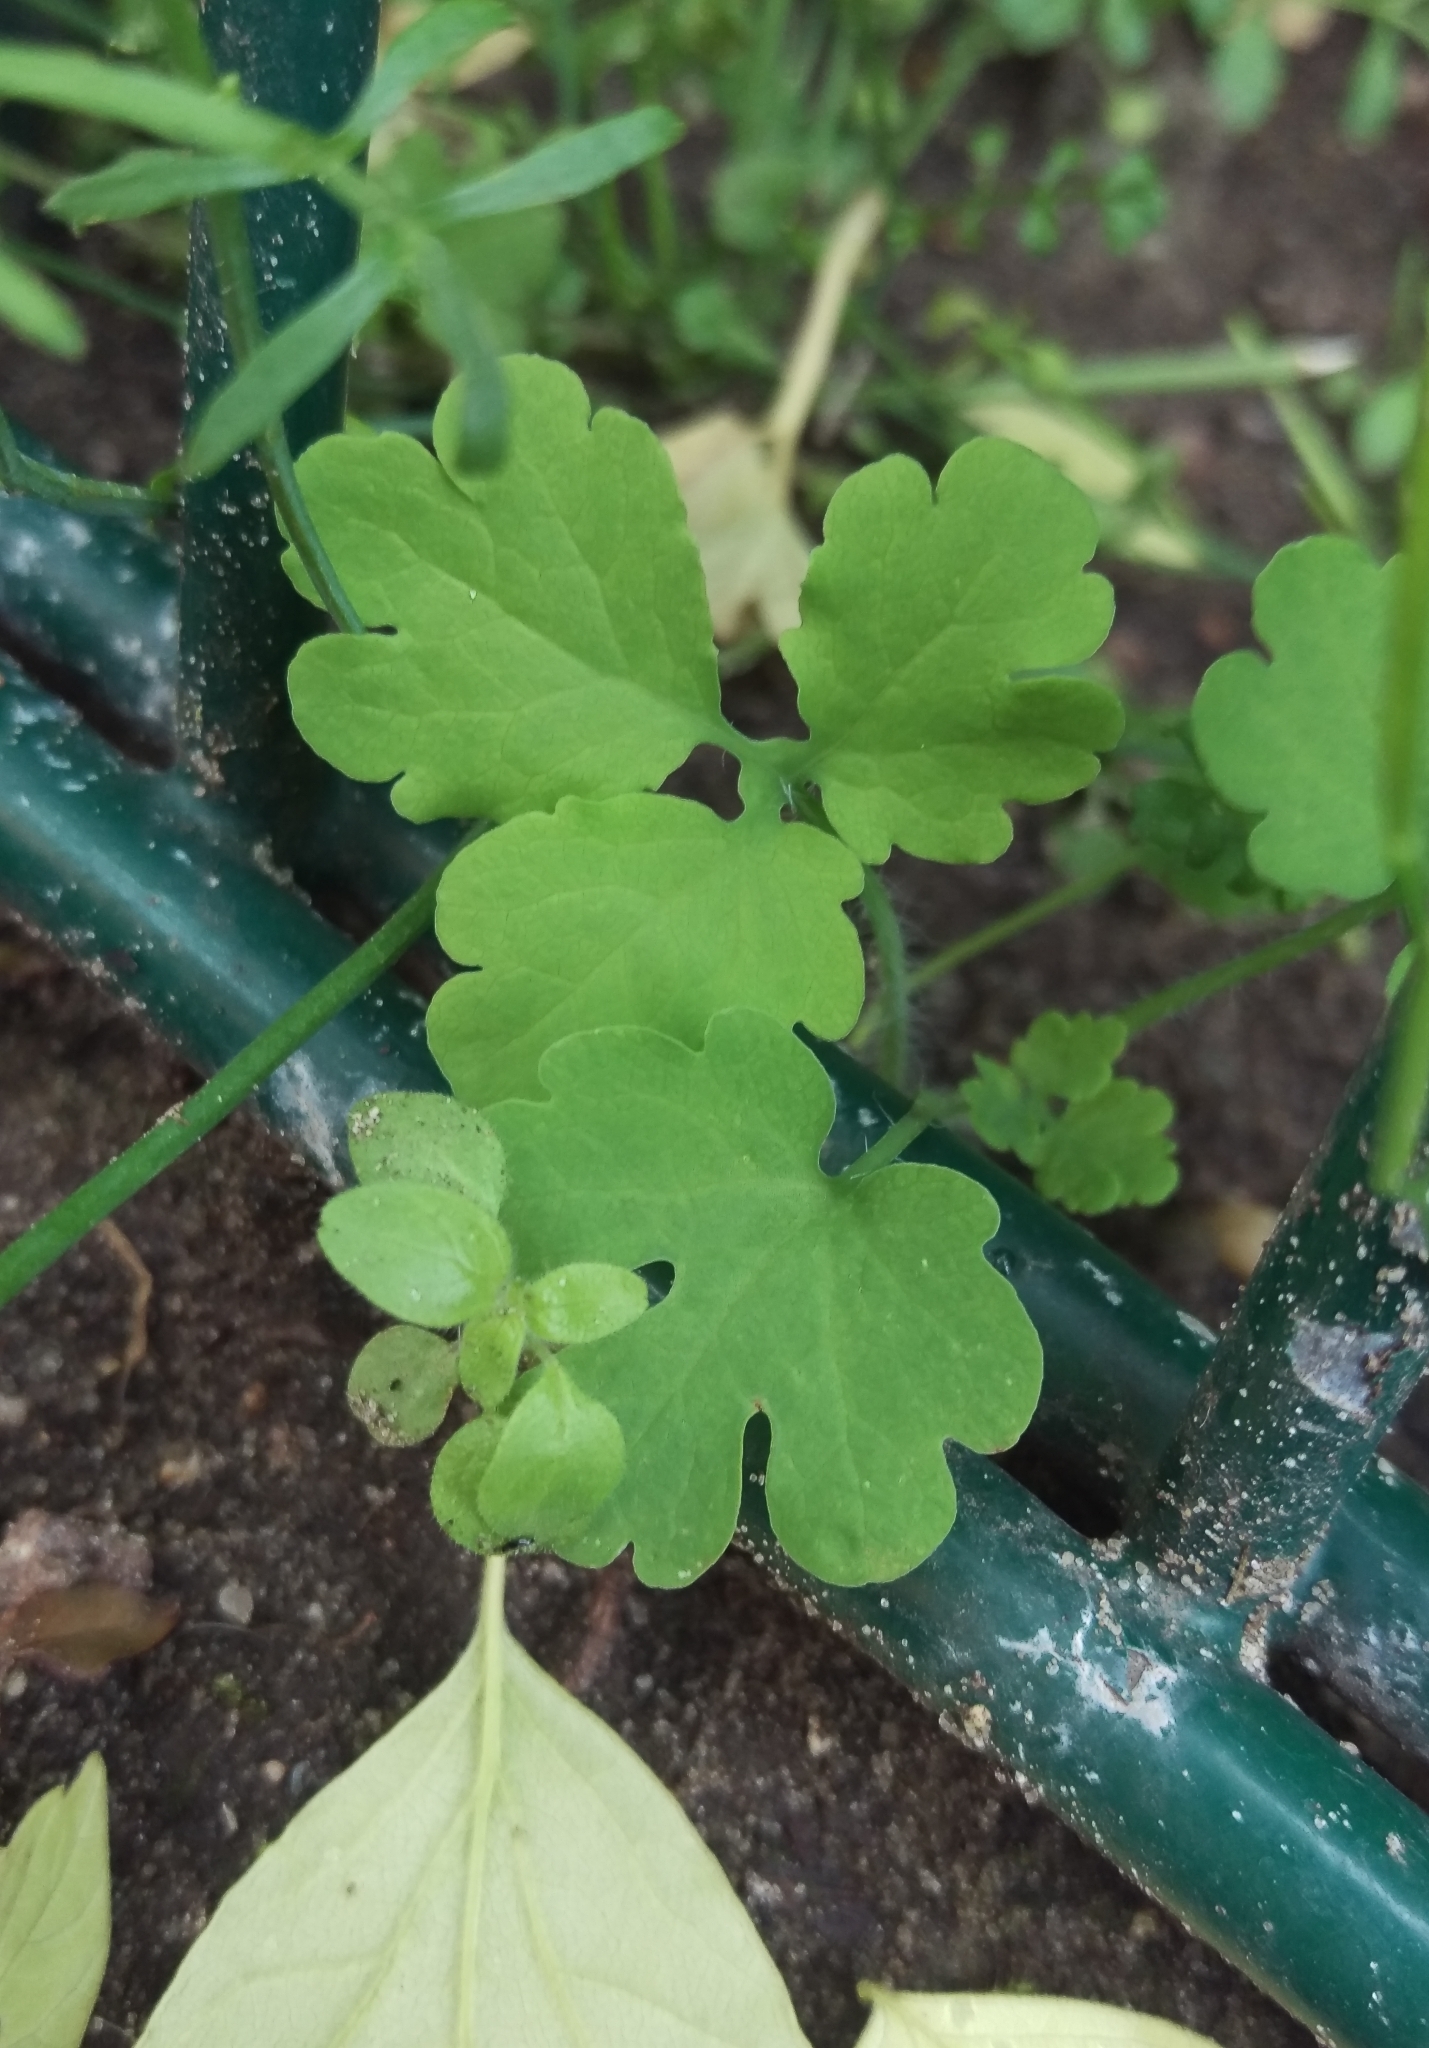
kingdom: Plantae
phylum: Tracheophyta
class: Magnoliopsida
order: Ranunculales
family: Papaveraceae
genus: Chelidonium
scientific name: Chelidonium majus
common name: Greater celandine
